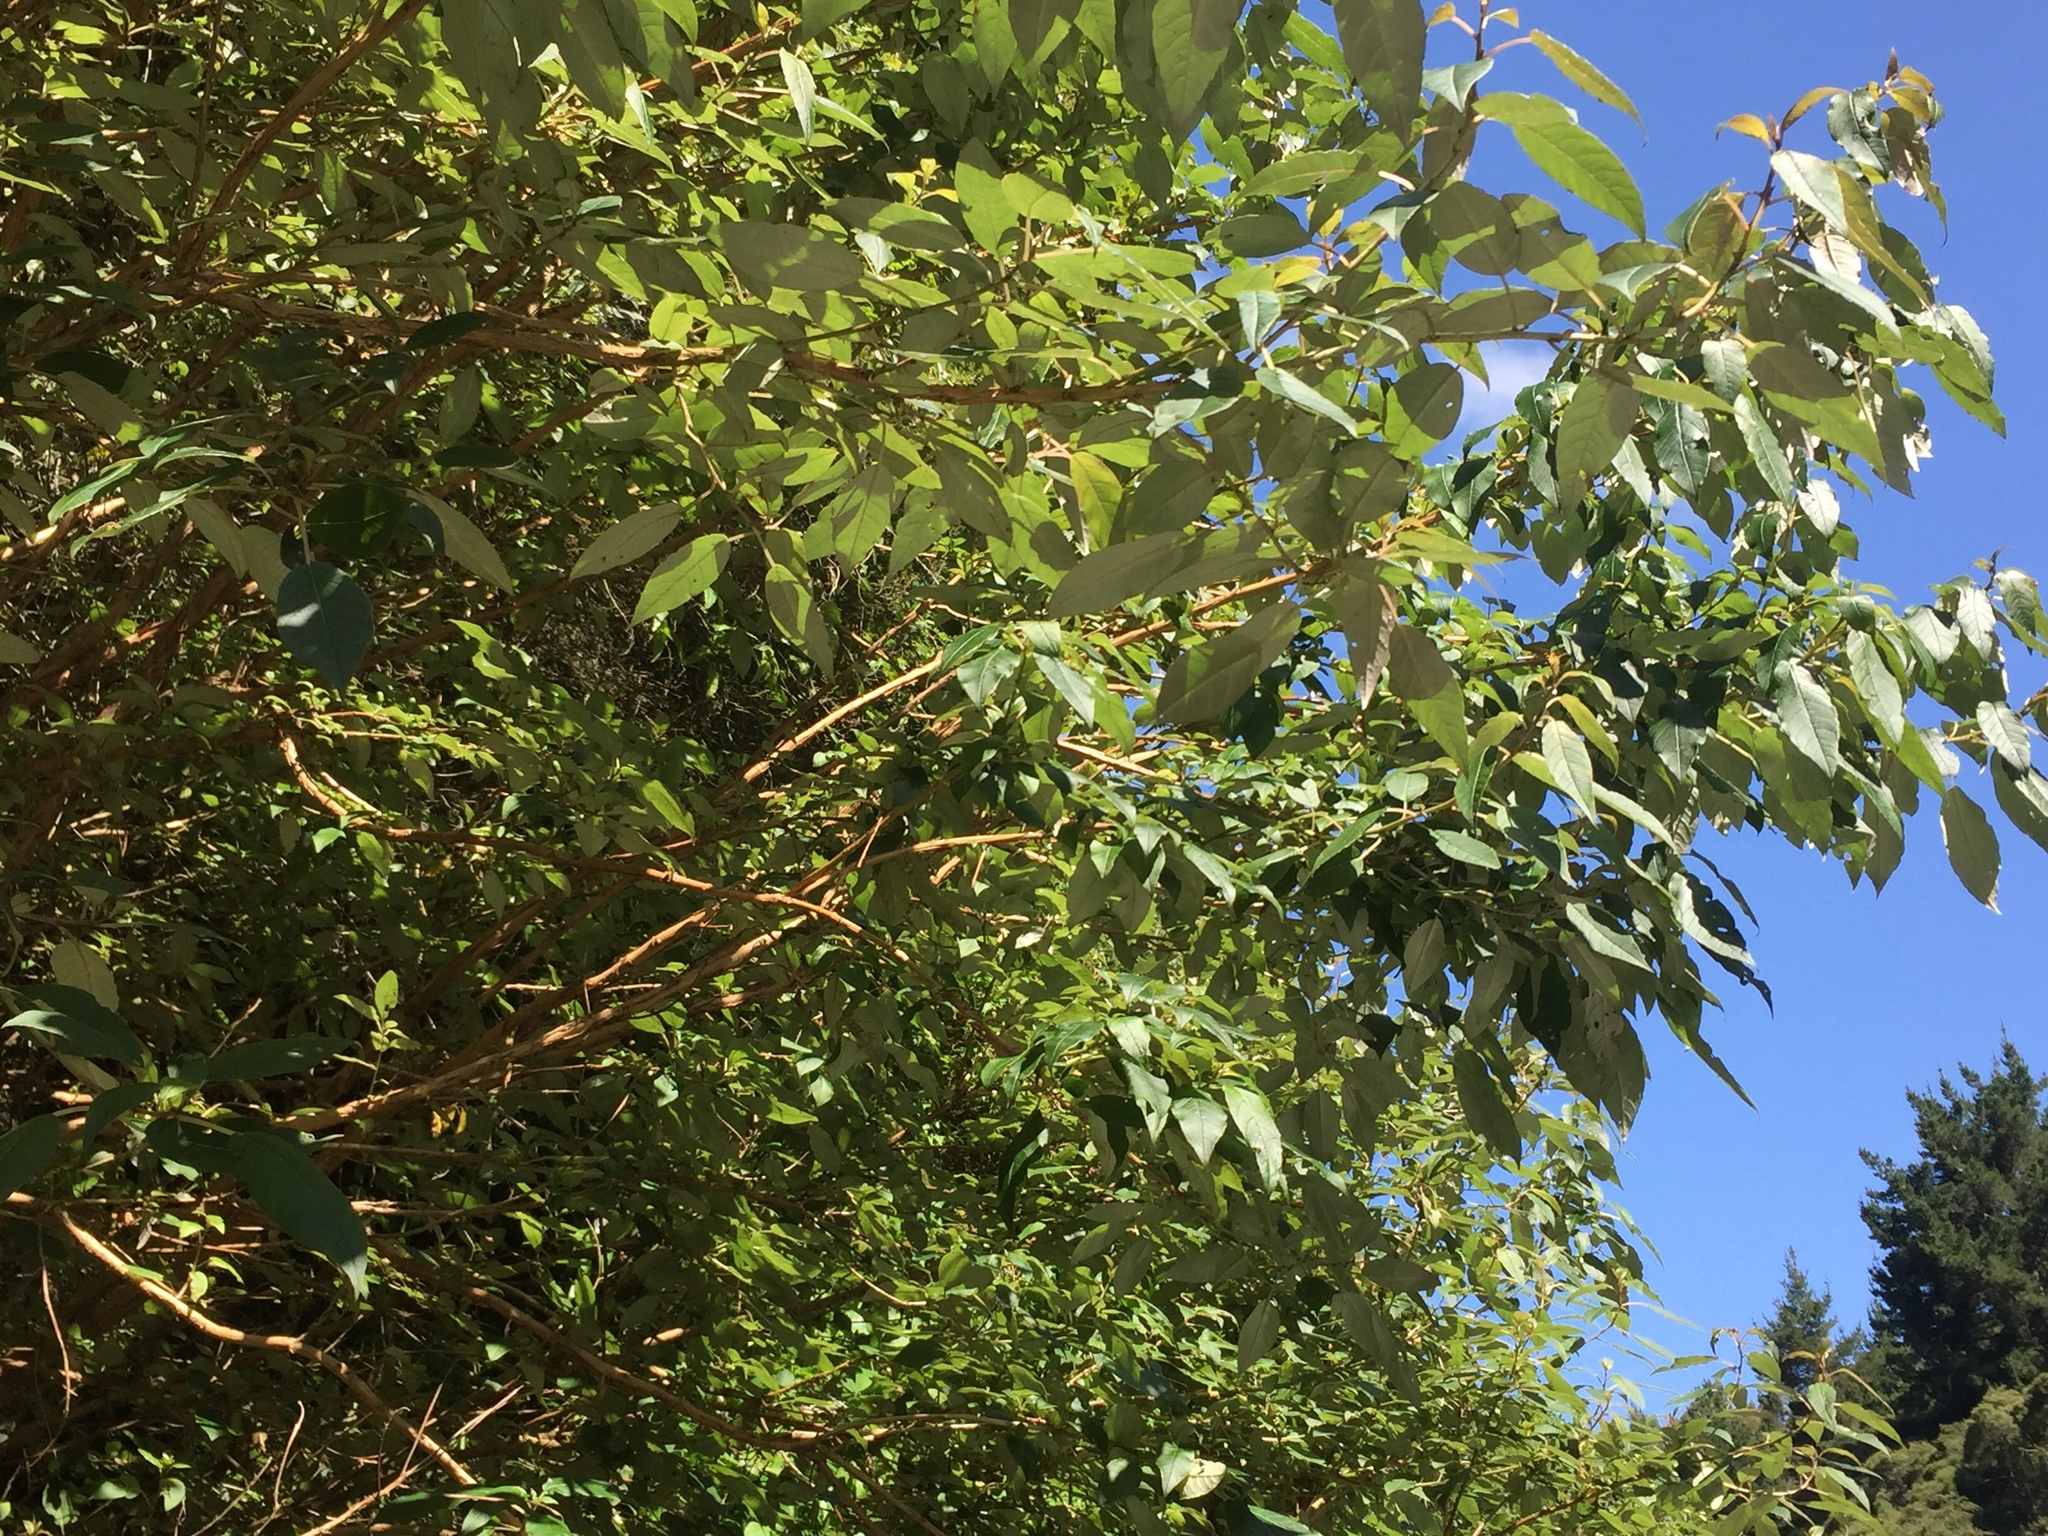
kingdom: Plantae
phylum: Tracheophyta
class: Magnoliopsida
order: Myrtales
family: Onagraceae
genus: Fuchsia
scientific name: Fuchsia excorticata
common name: Tree fuchsia
